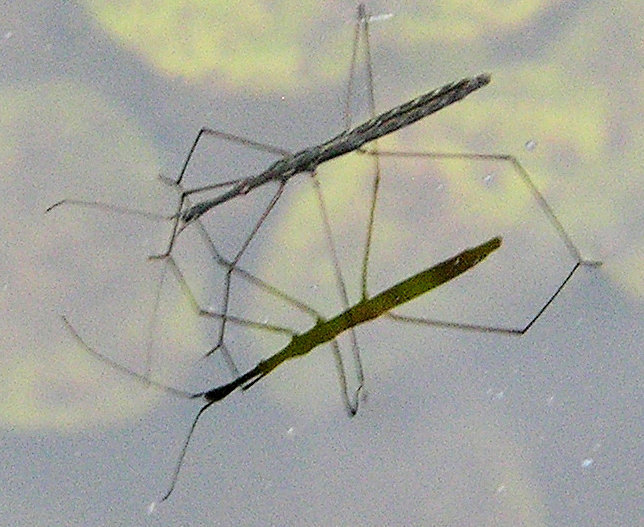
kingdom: Animalia
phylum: Arthropoda
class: Insecta
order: Hemiptera
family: Hydrometridae
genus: Hydrometra
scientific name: Hydrometra stagnorum
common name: Water measurer
